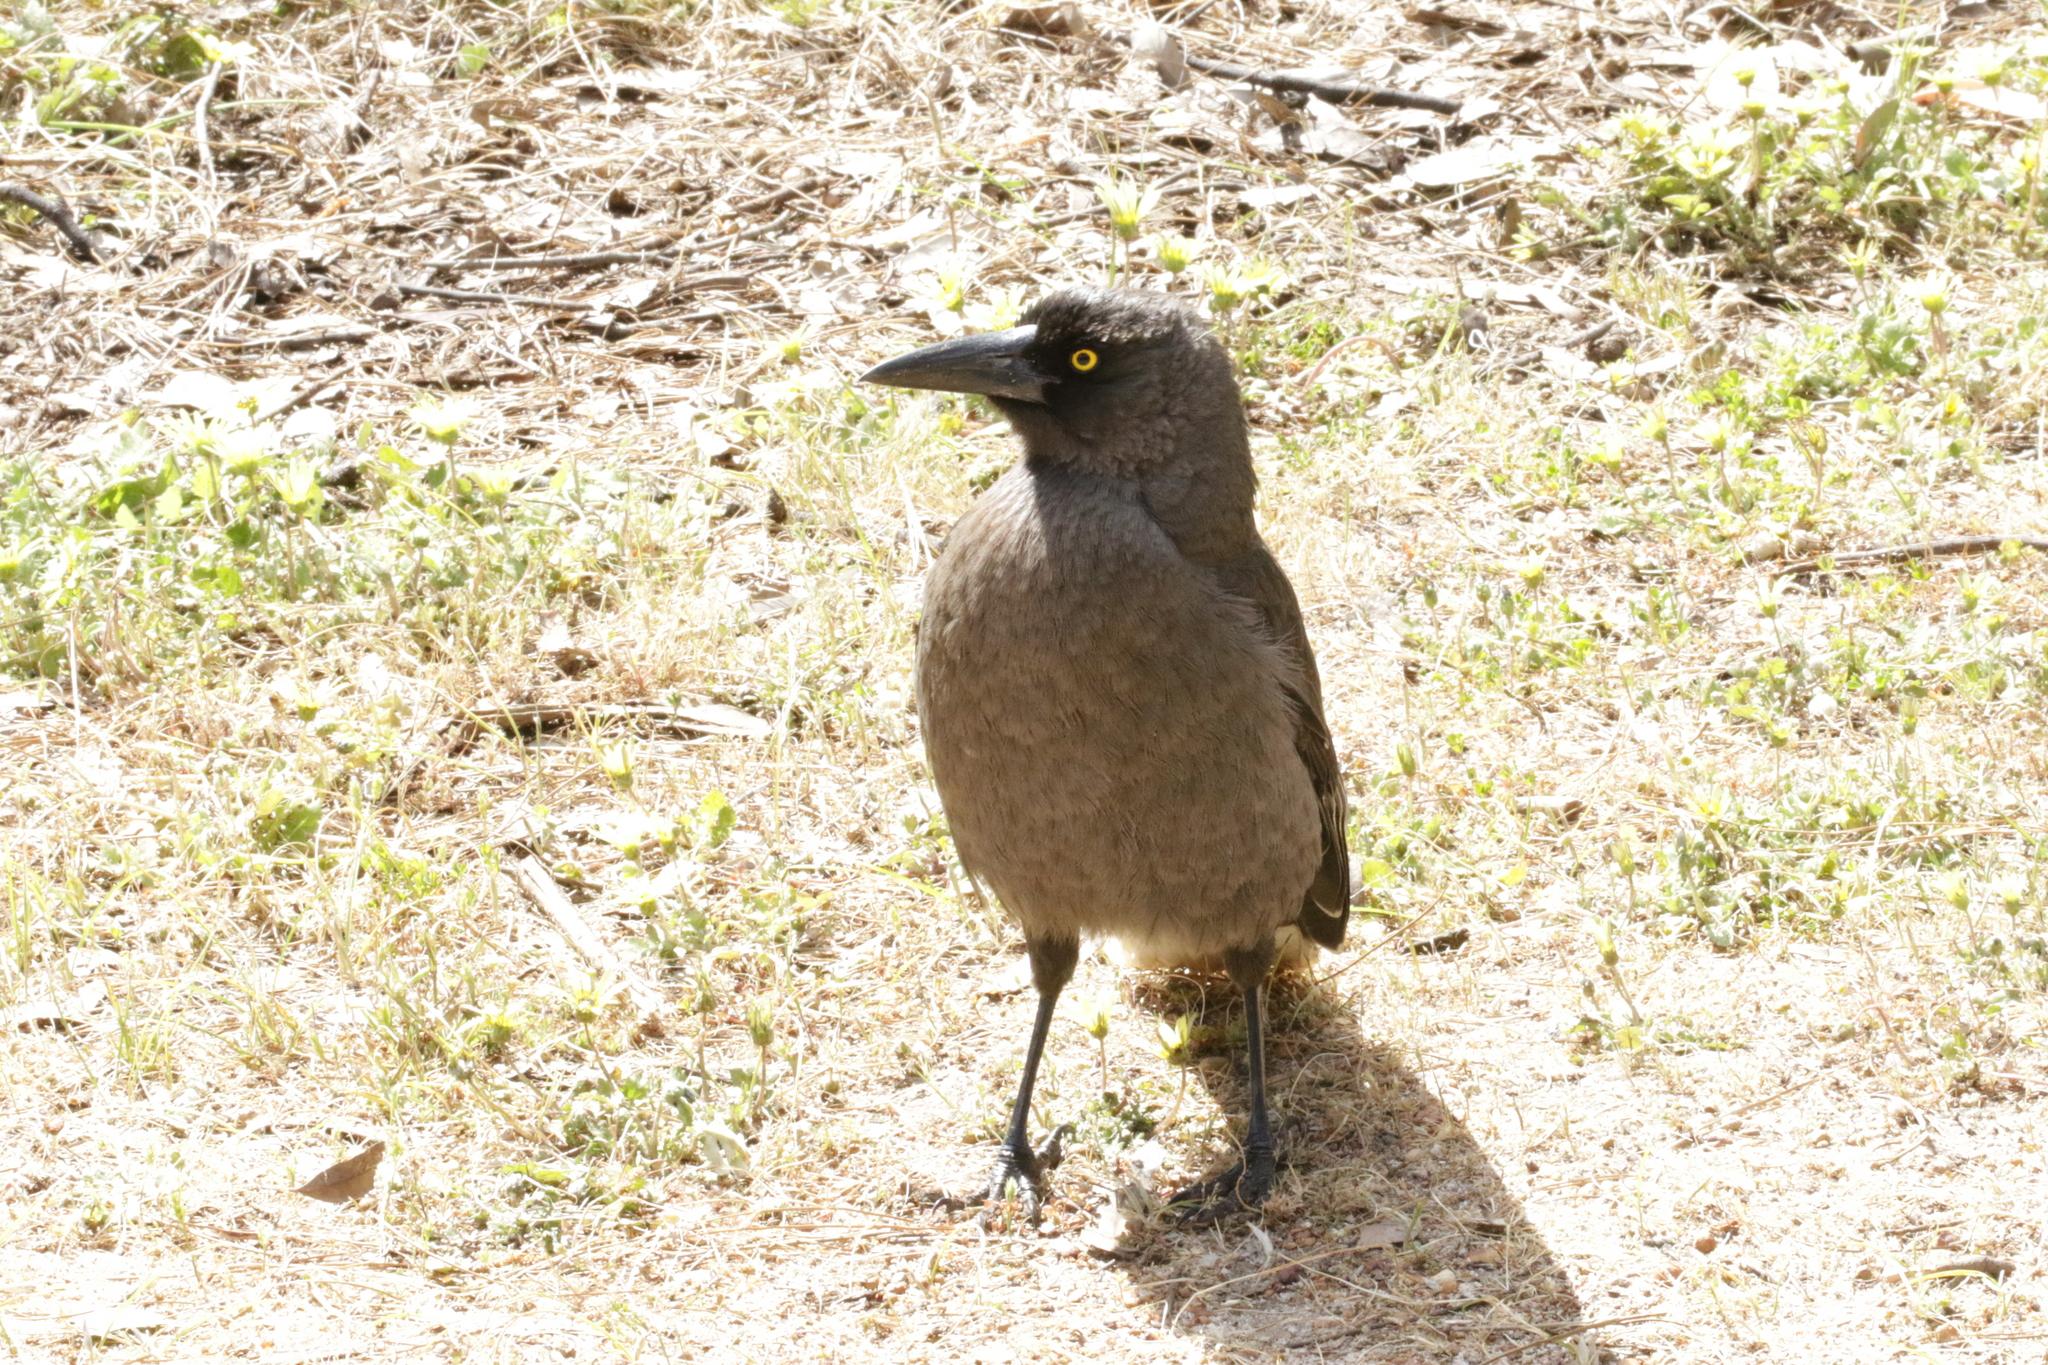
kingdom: Animalia
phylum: Chordata
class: Aves
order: Passeriformes
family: Cracticidae
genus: Strepera
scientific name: Strepera versicolor
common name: Grey currawong
